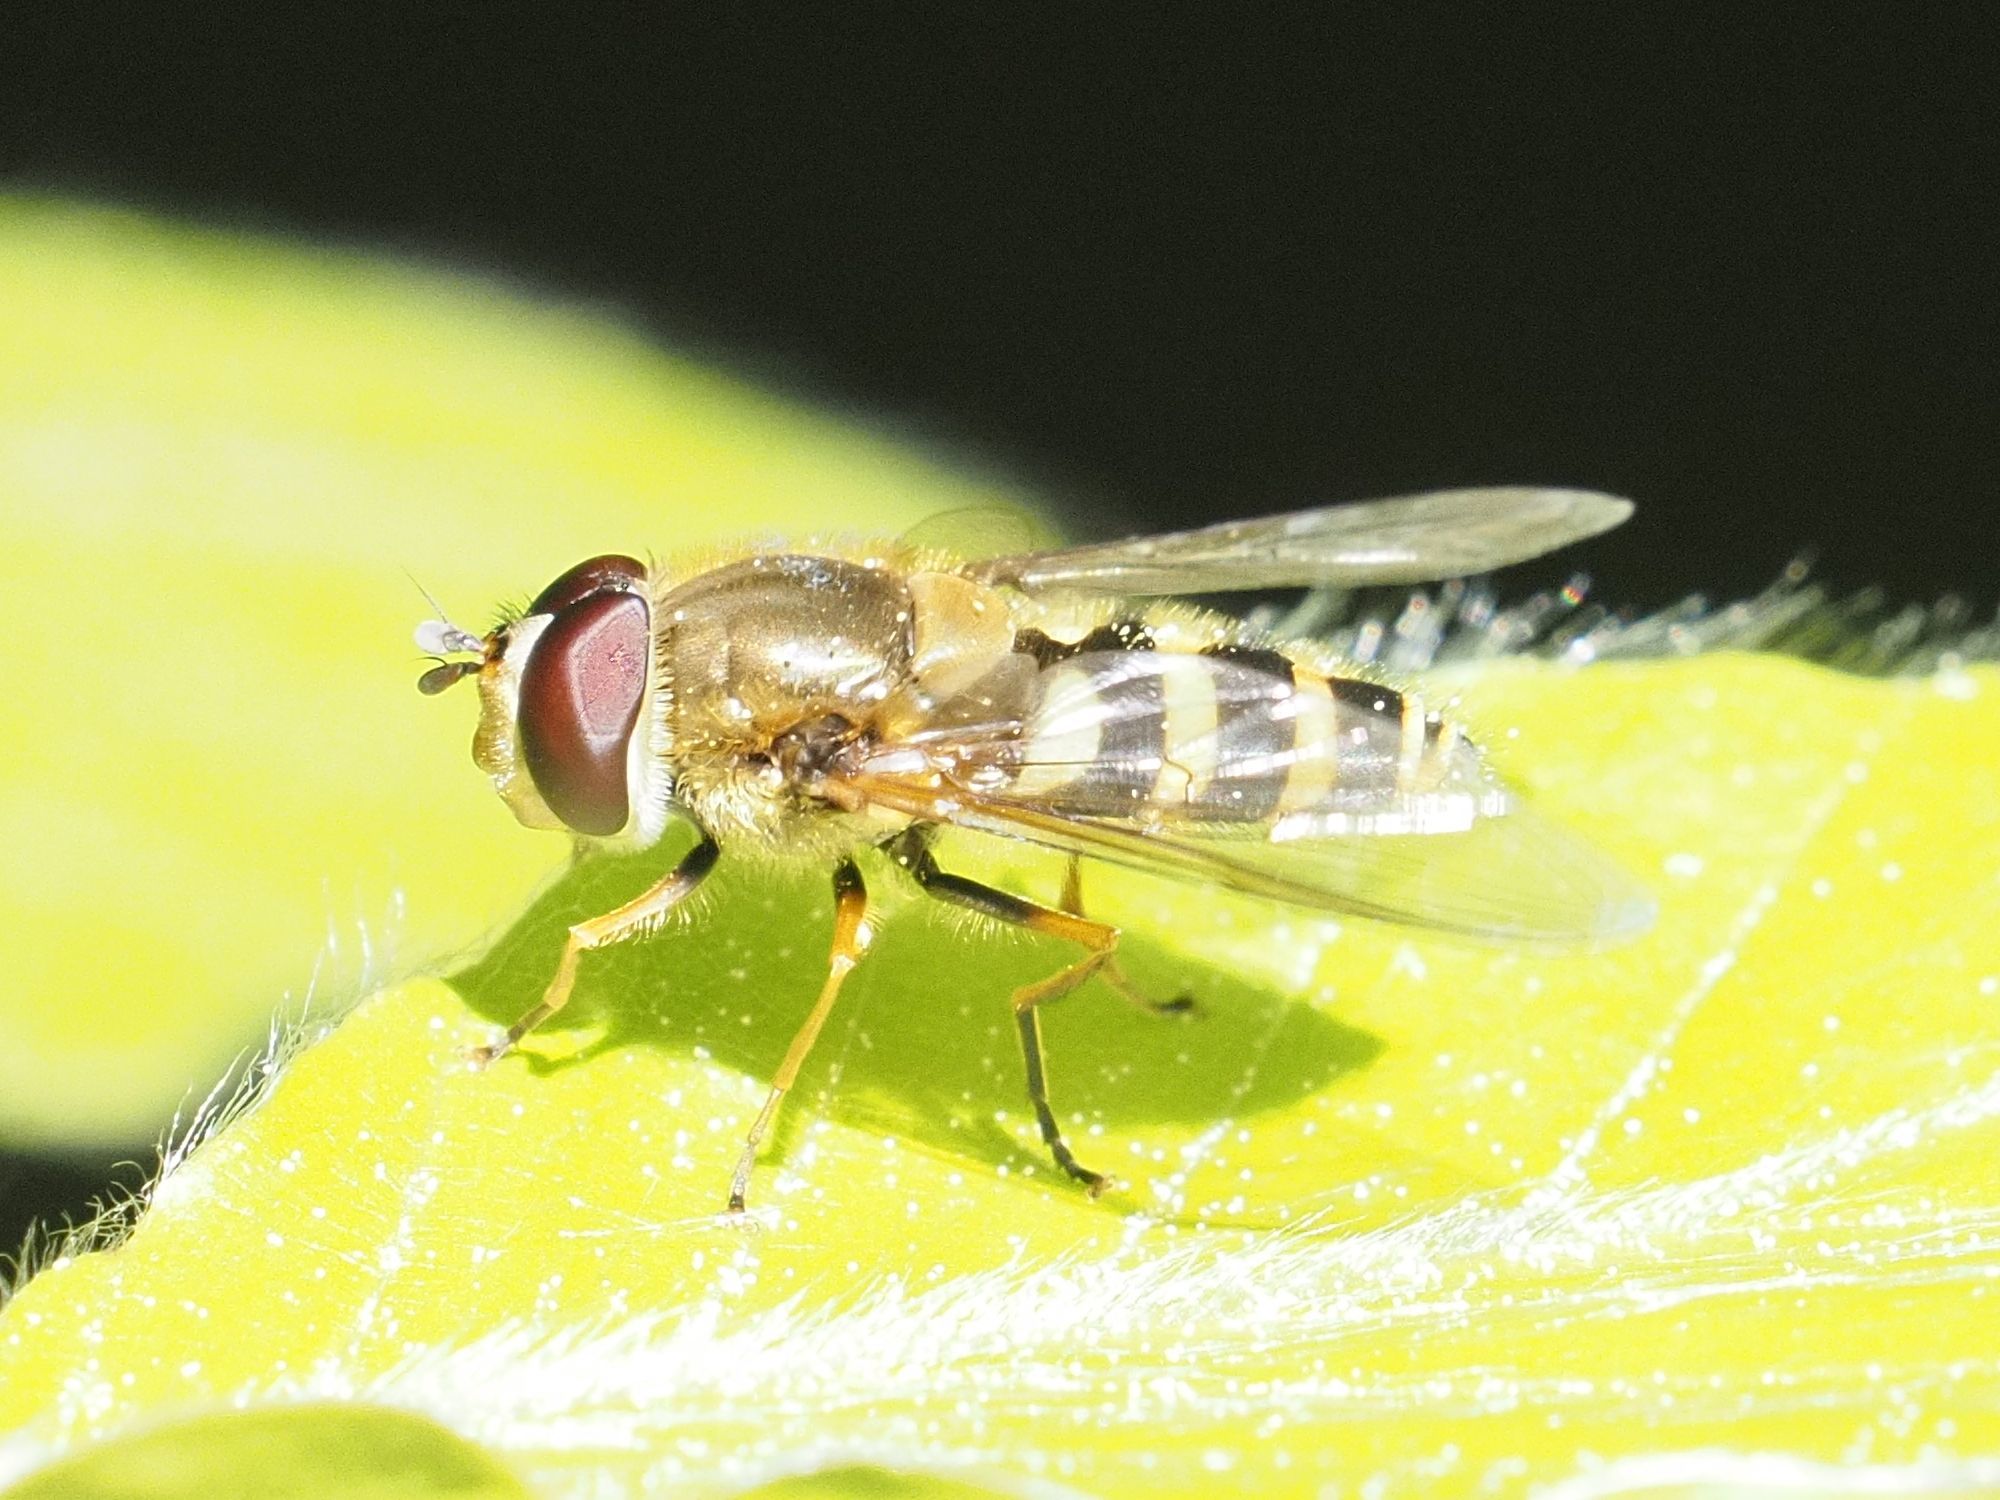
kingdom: Animalia
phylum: Arthropoda
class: Insecta
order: Diptera
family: Syrphidae
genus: Syrphus
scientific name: Syrphus
